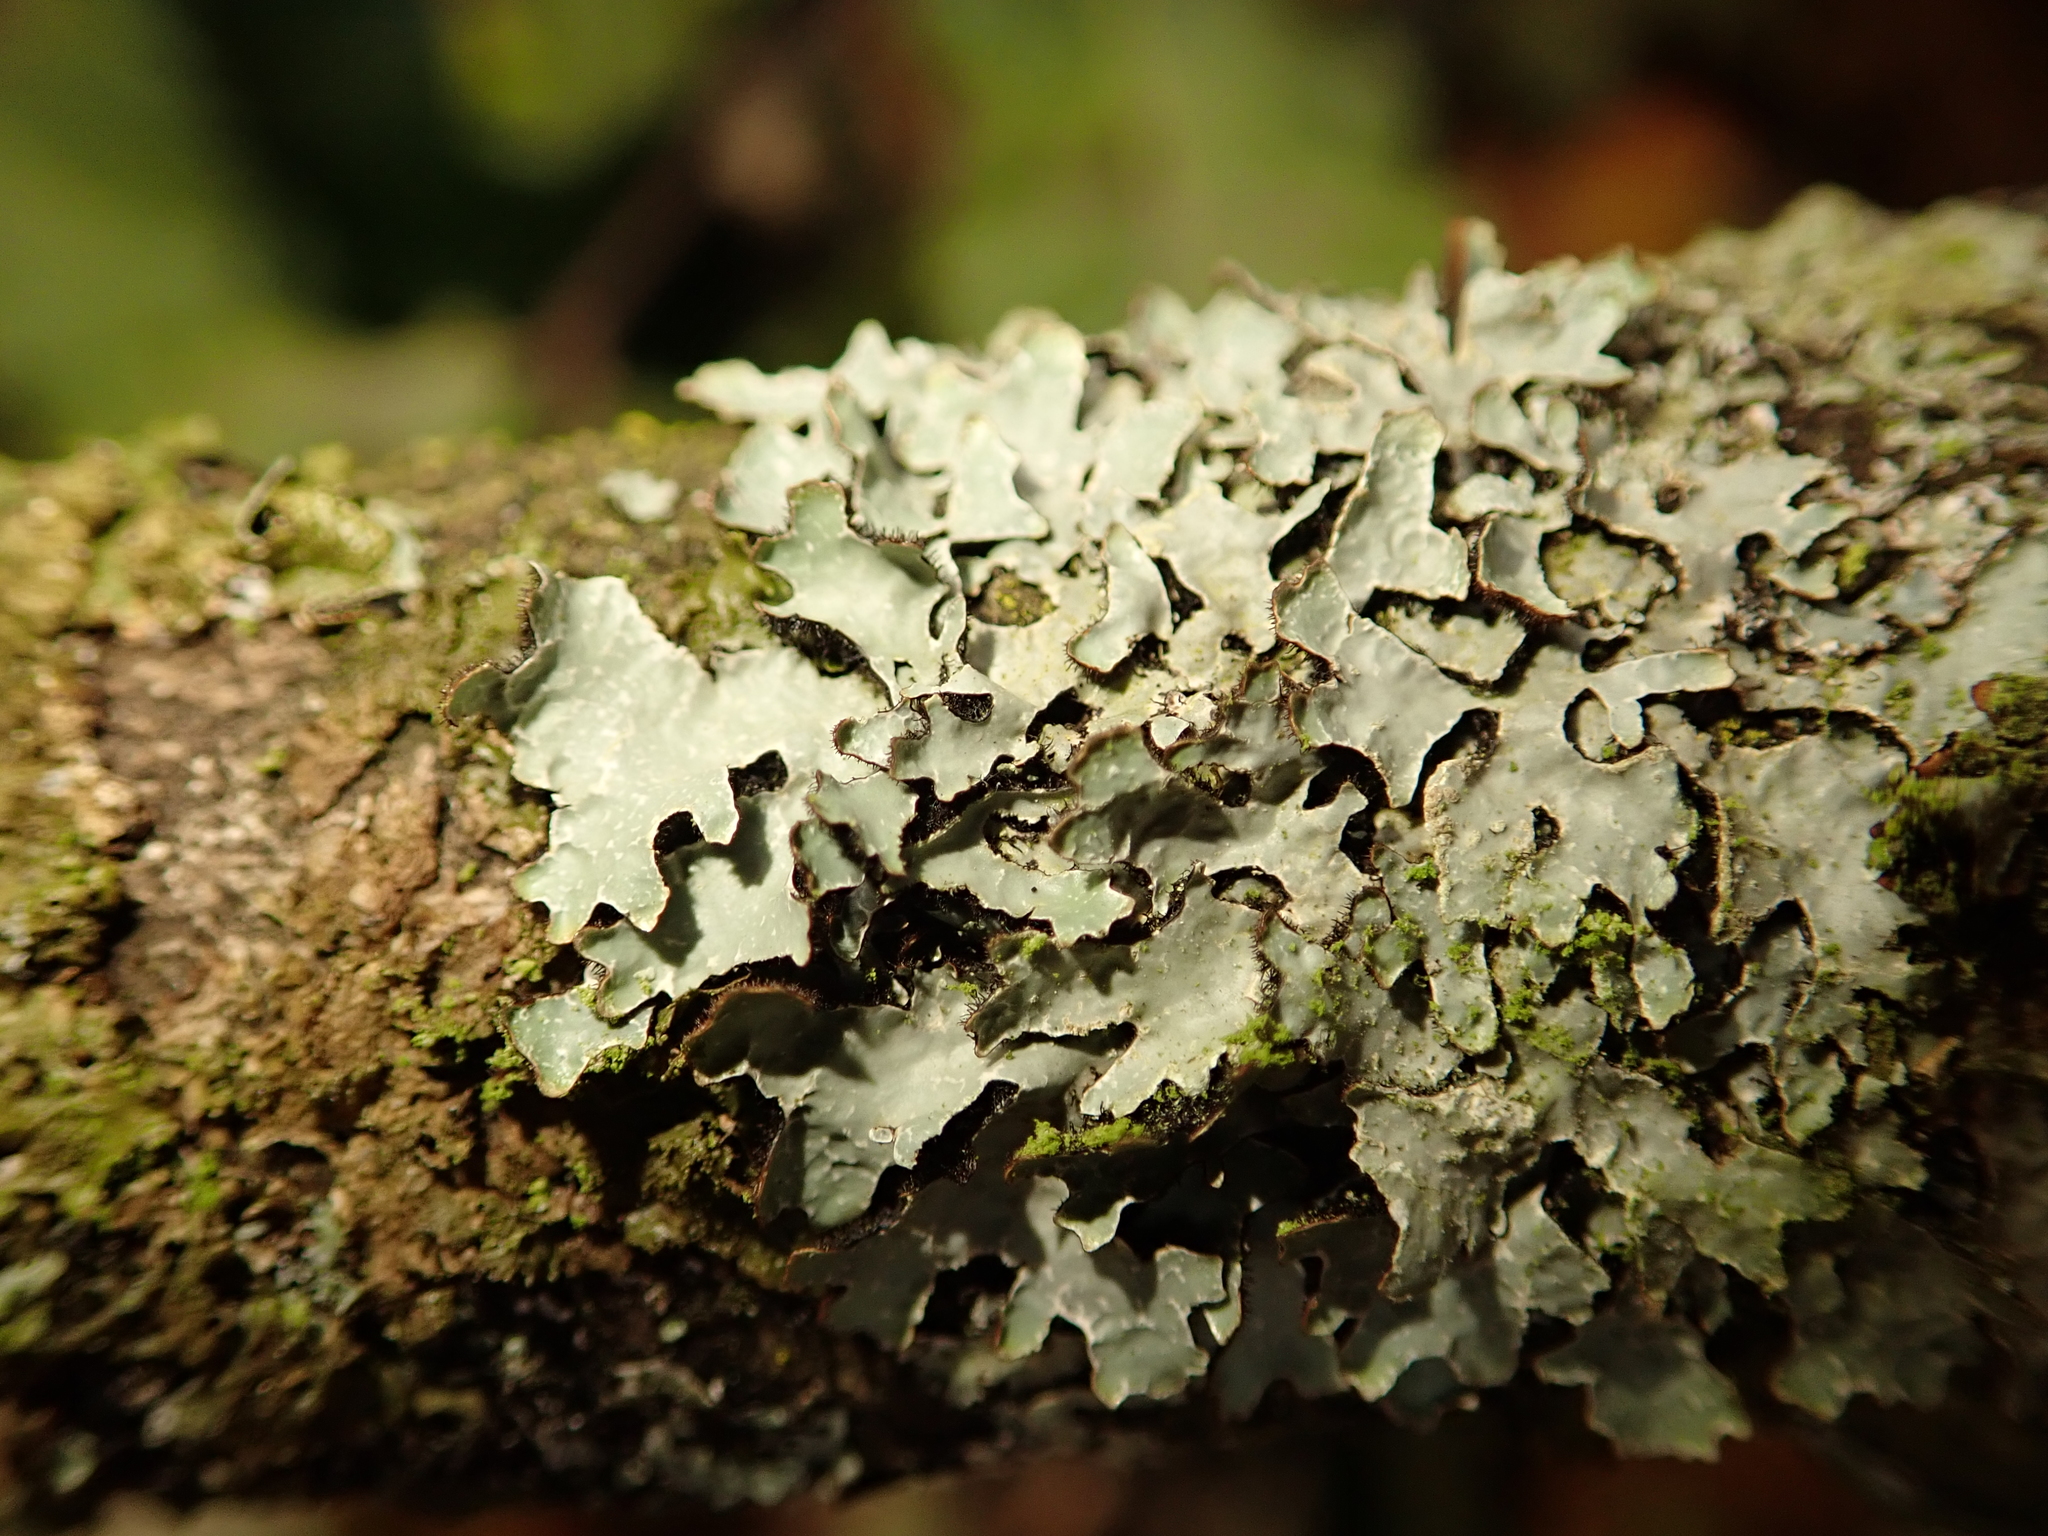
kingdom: Fungi
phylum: Ascomycota
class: Lecanoromycetes
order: Lecanorales
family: Parmeliaceae
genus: Parmelia
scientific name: Parmelia sulcata
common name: Netted shield lichen
